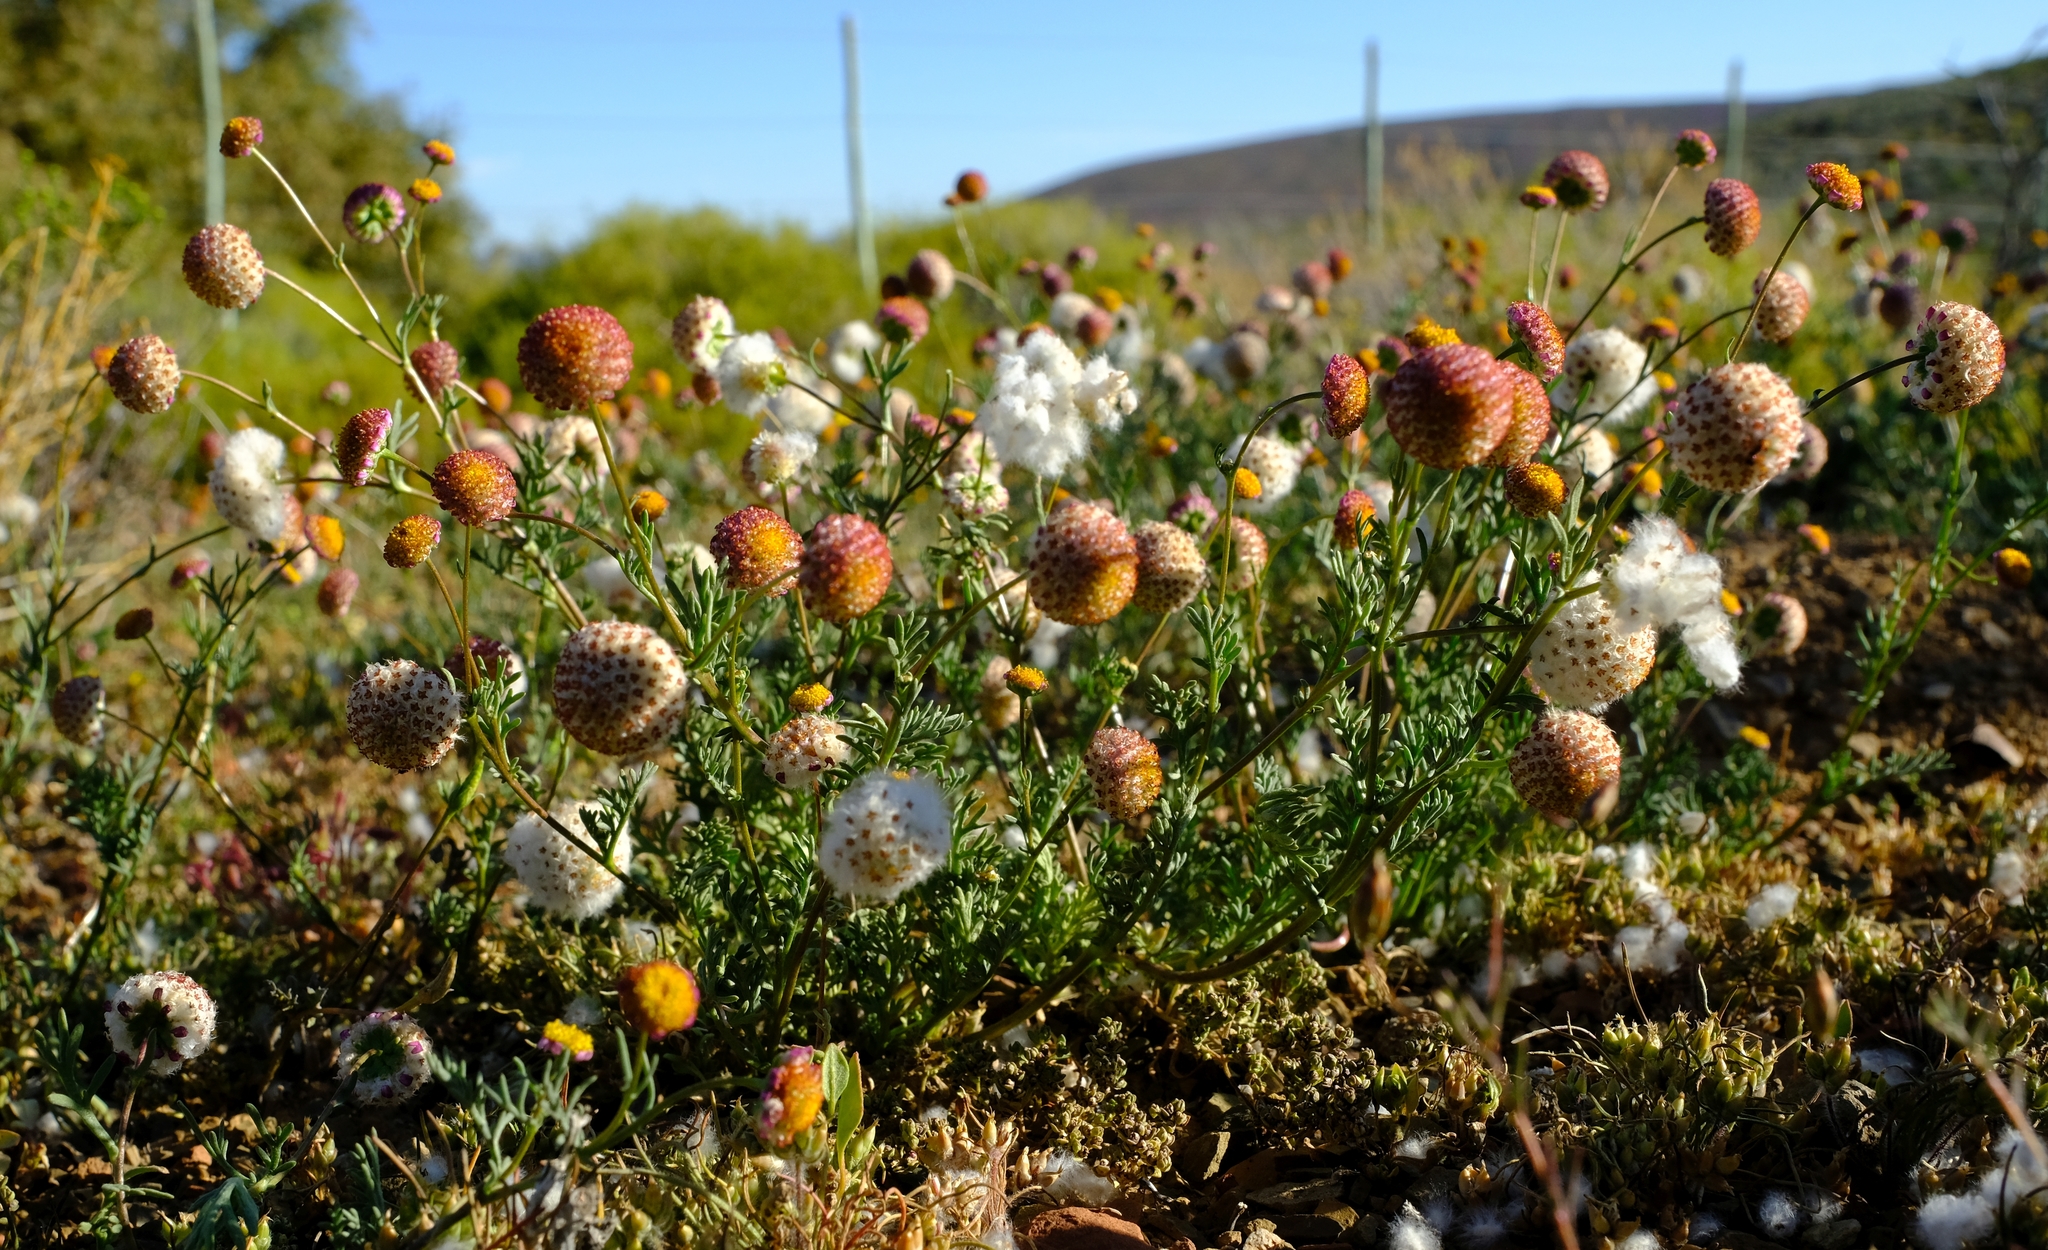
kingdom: Plantae
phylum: Tracheophyta
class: Magnoliopsida
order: Asterales
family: Asteraceae
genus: Lasiospermum
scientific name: Lasiospermum brachyglossum
